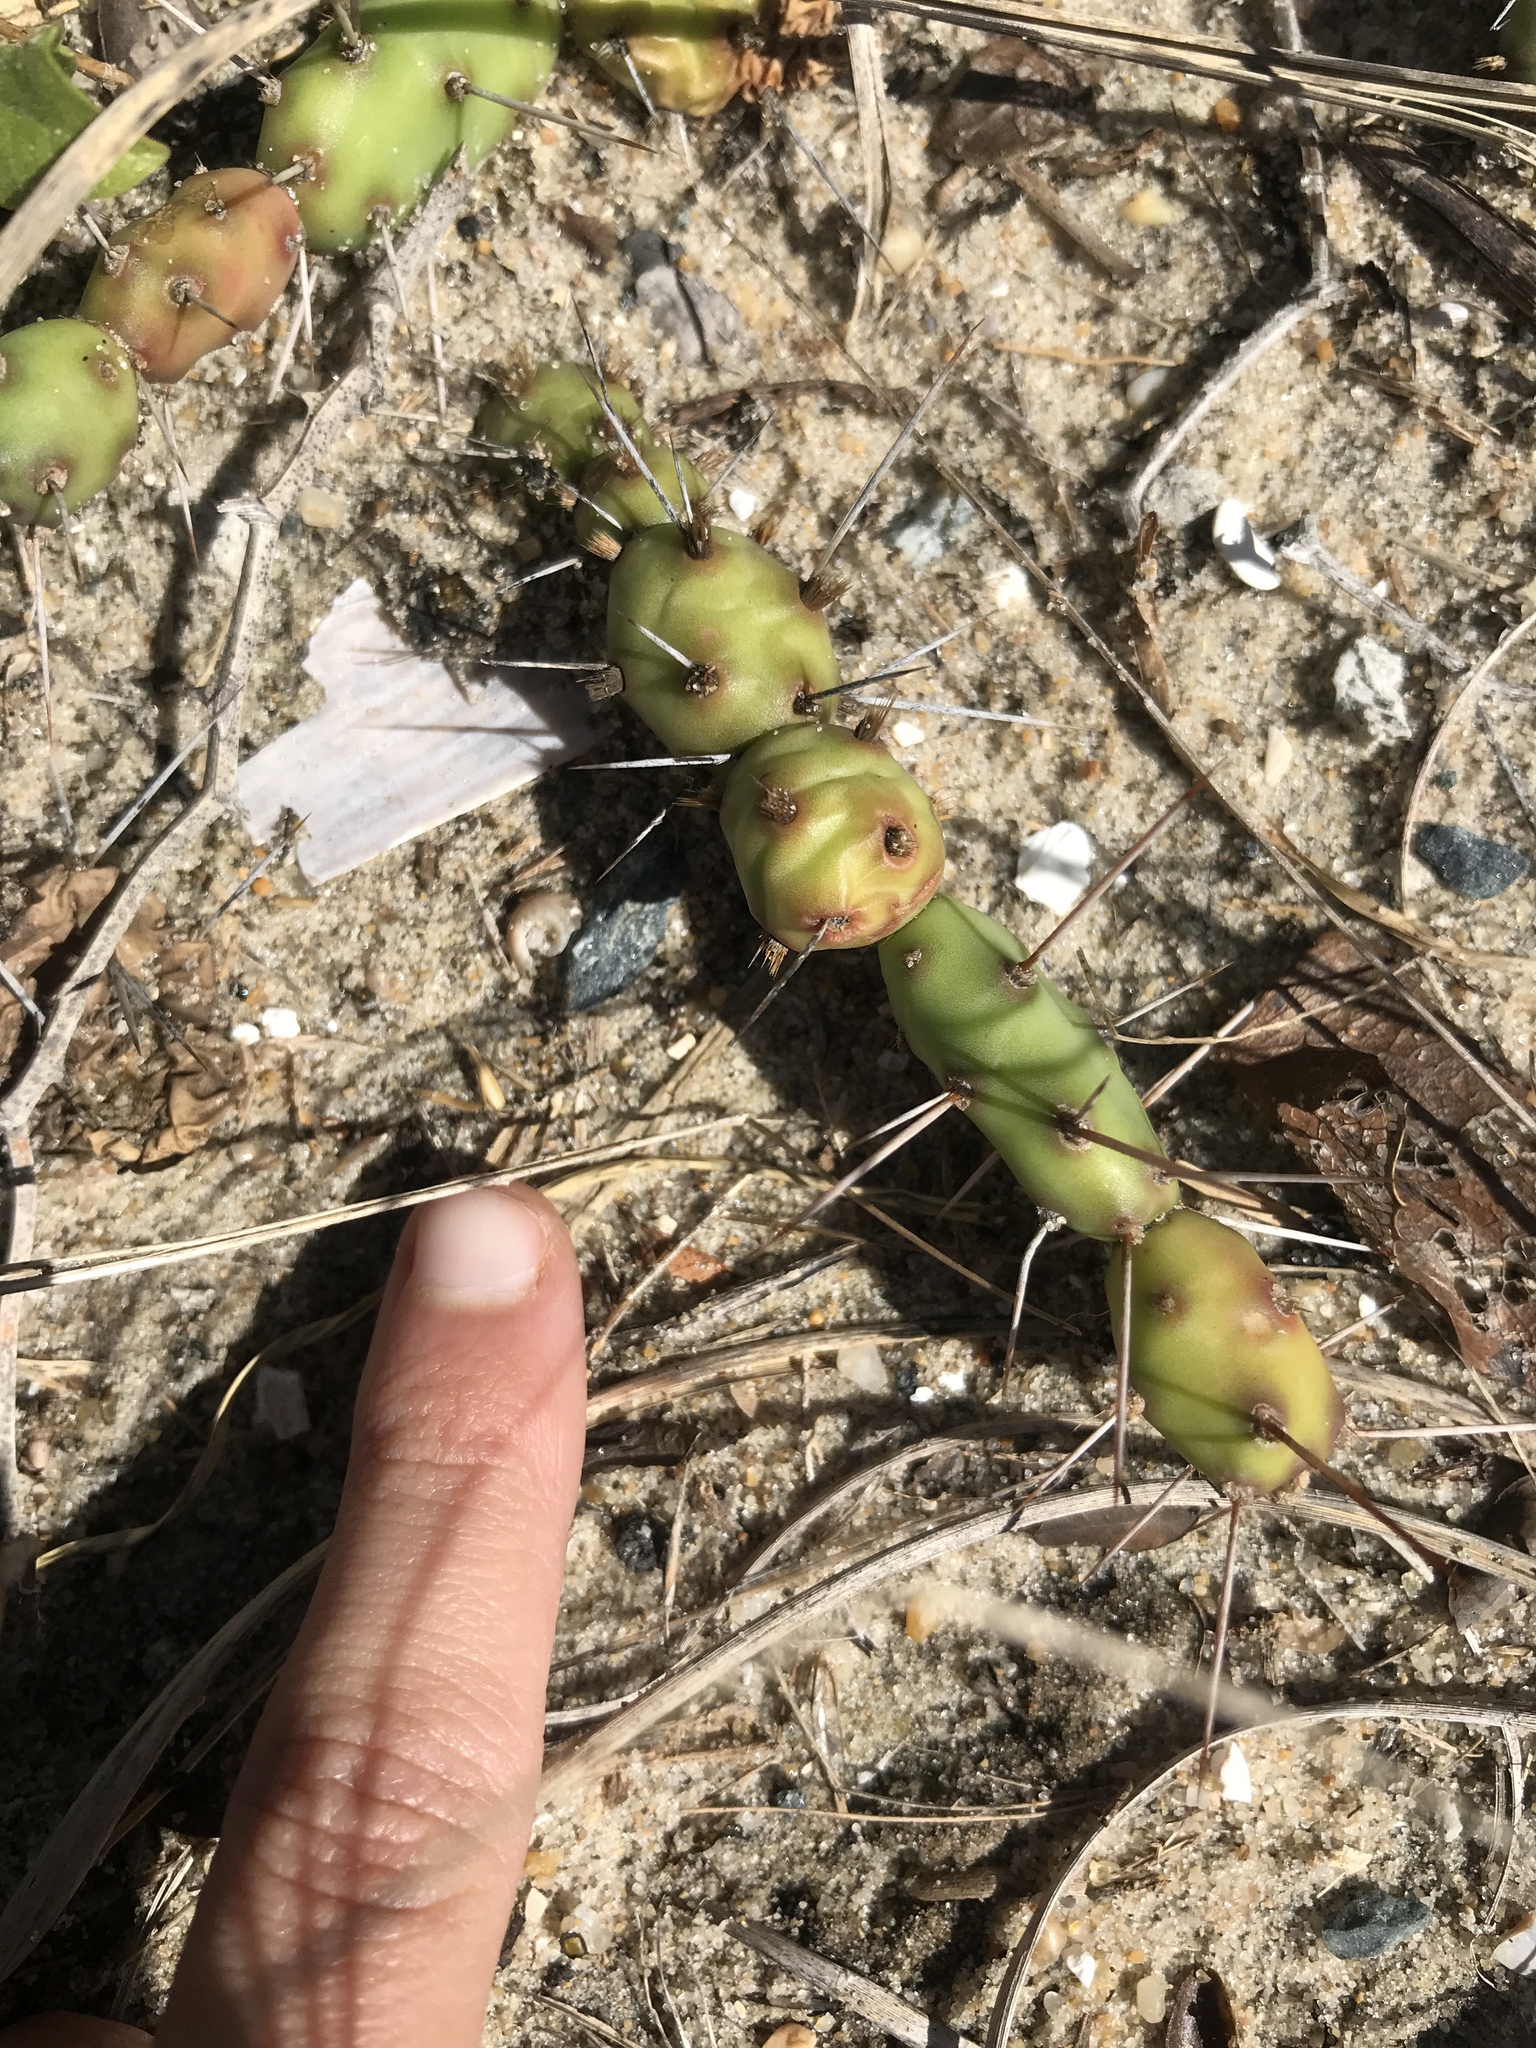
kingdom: Plantae
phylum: Tracheophyta
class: Magnoliopsida
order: Caryophyllales
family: Cactaceae
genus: Opuntia
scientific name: Opuntia drummondii
